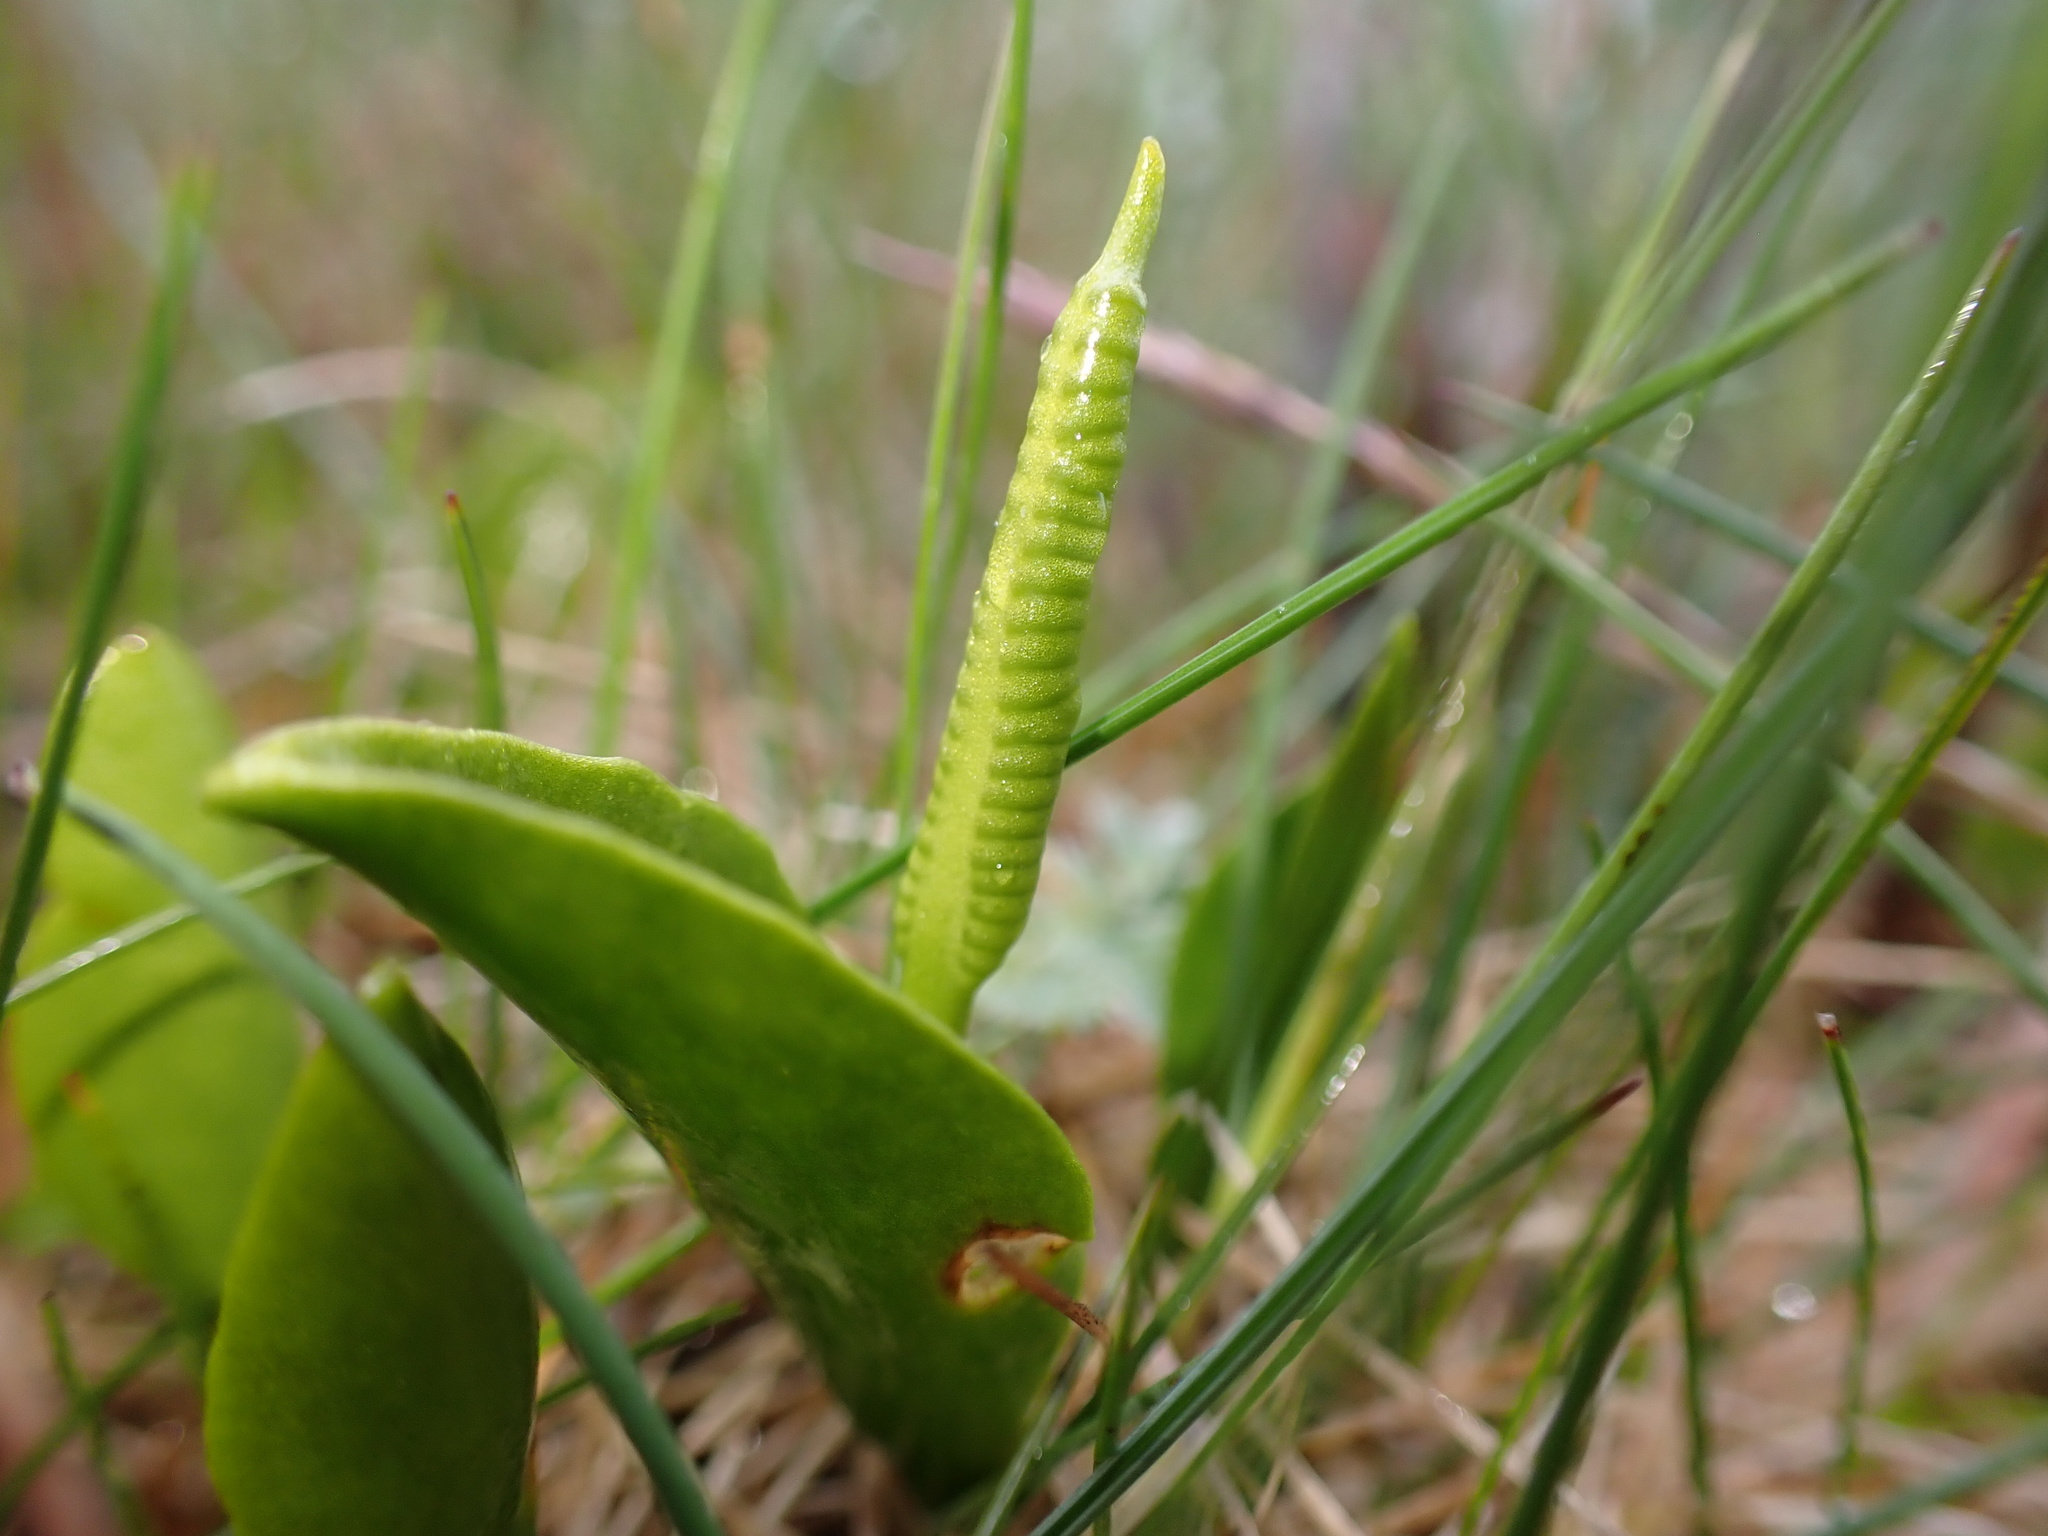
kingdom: Plantae
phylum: Tracheophyta
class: Polypodiopsida
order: Ophioglossales
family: Ophioglossaceae
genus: Ophioglossum
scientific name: Ophioglossum vulgatum
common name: Adder's-tongue
